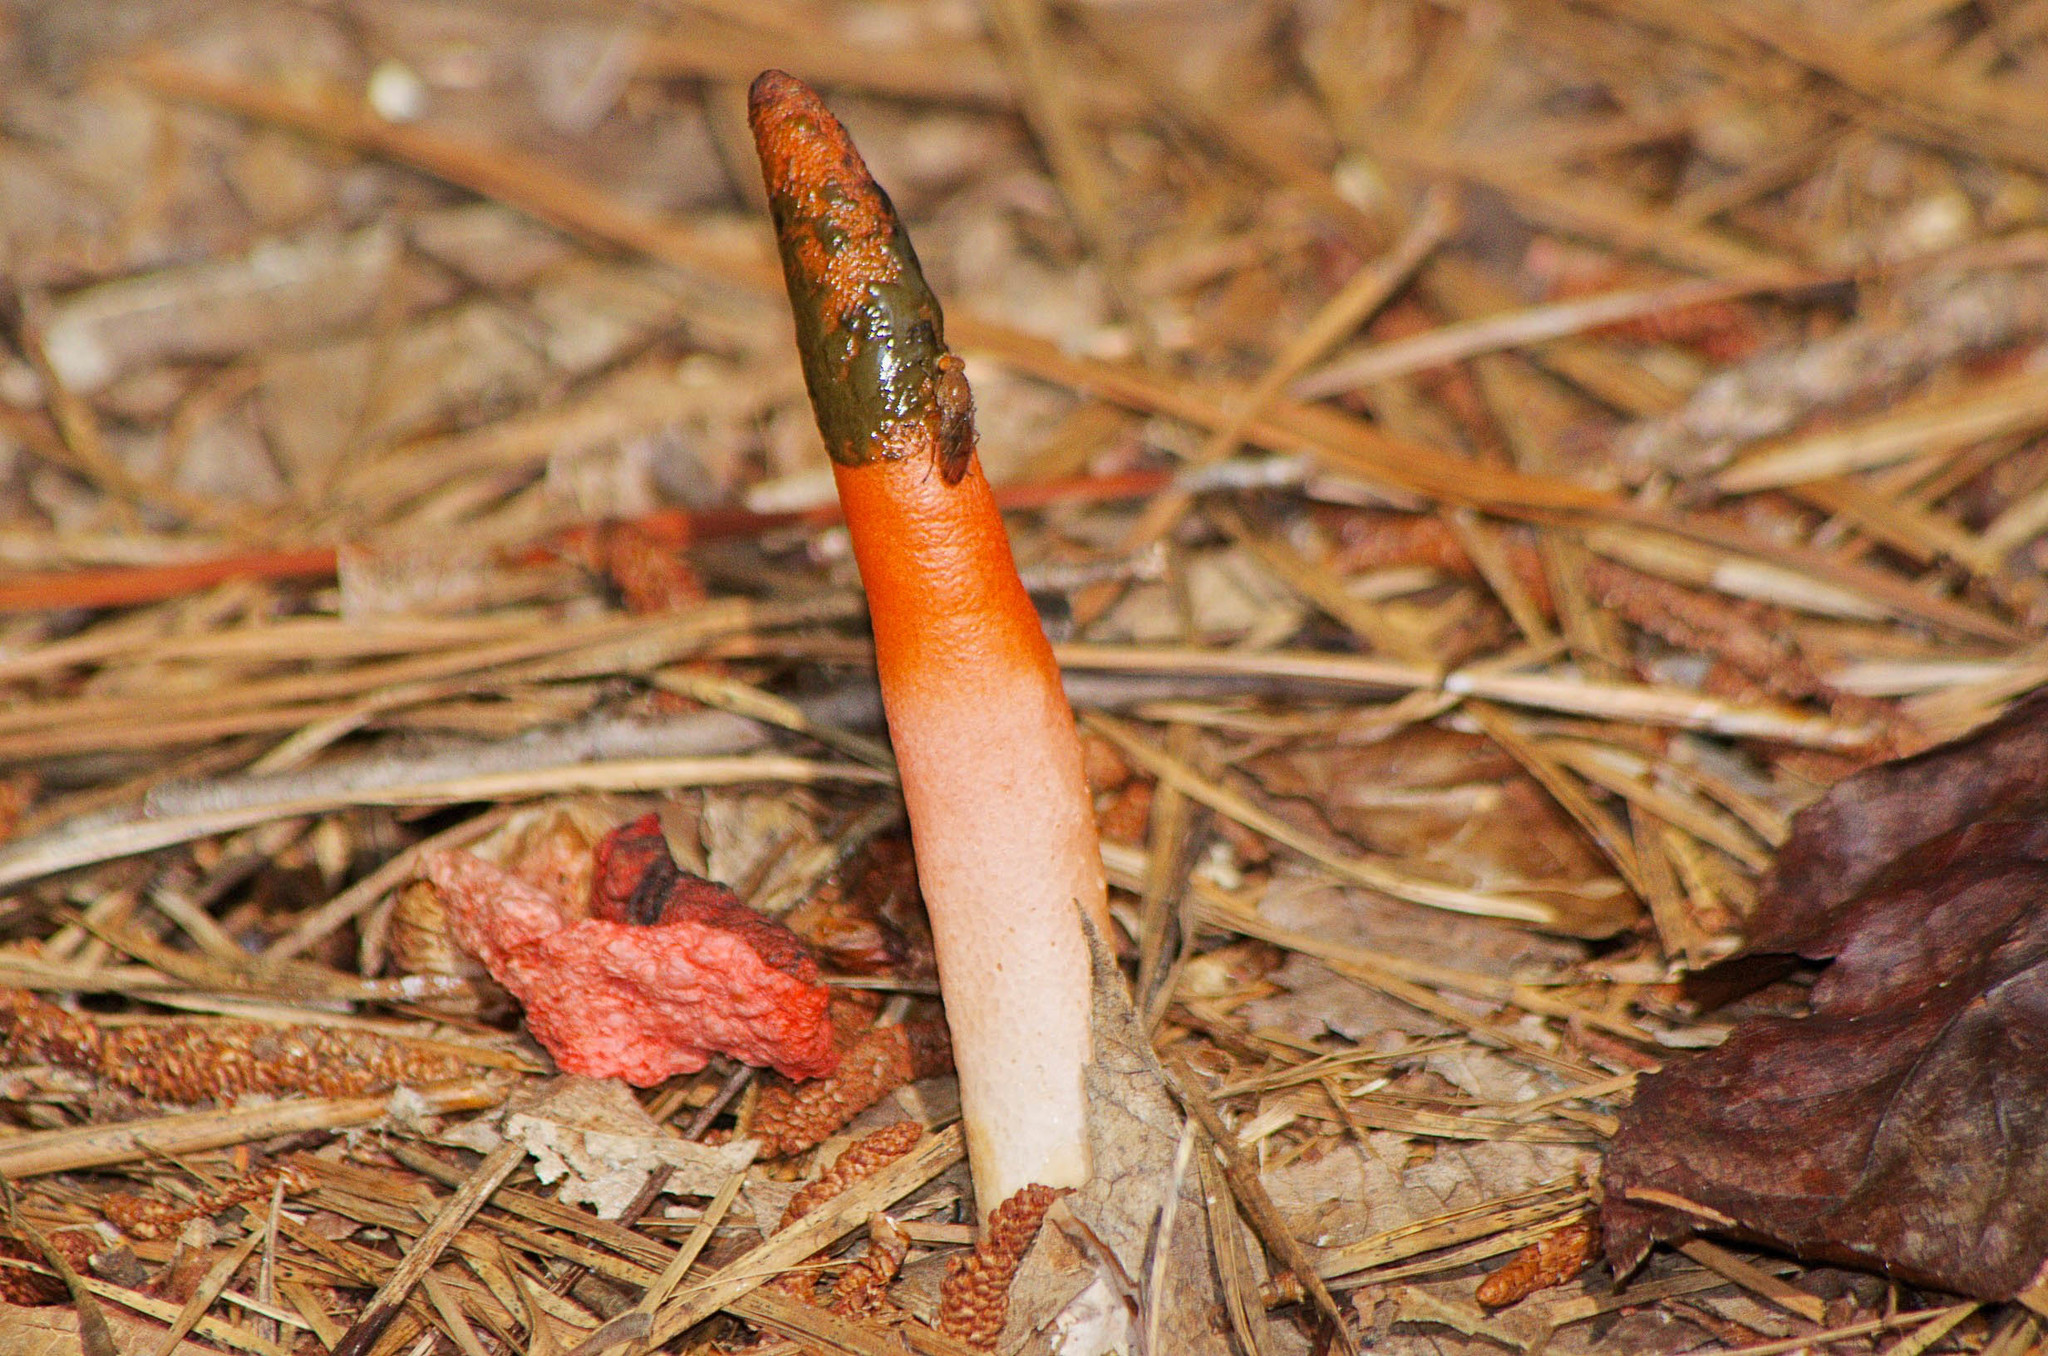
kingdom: Fungi
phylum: Basidiomycota
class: Agaricomycetes
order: Phallales
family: Phallaceae
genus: Mutinus
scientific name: Mutinus elegans
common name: Devil's dipstick
